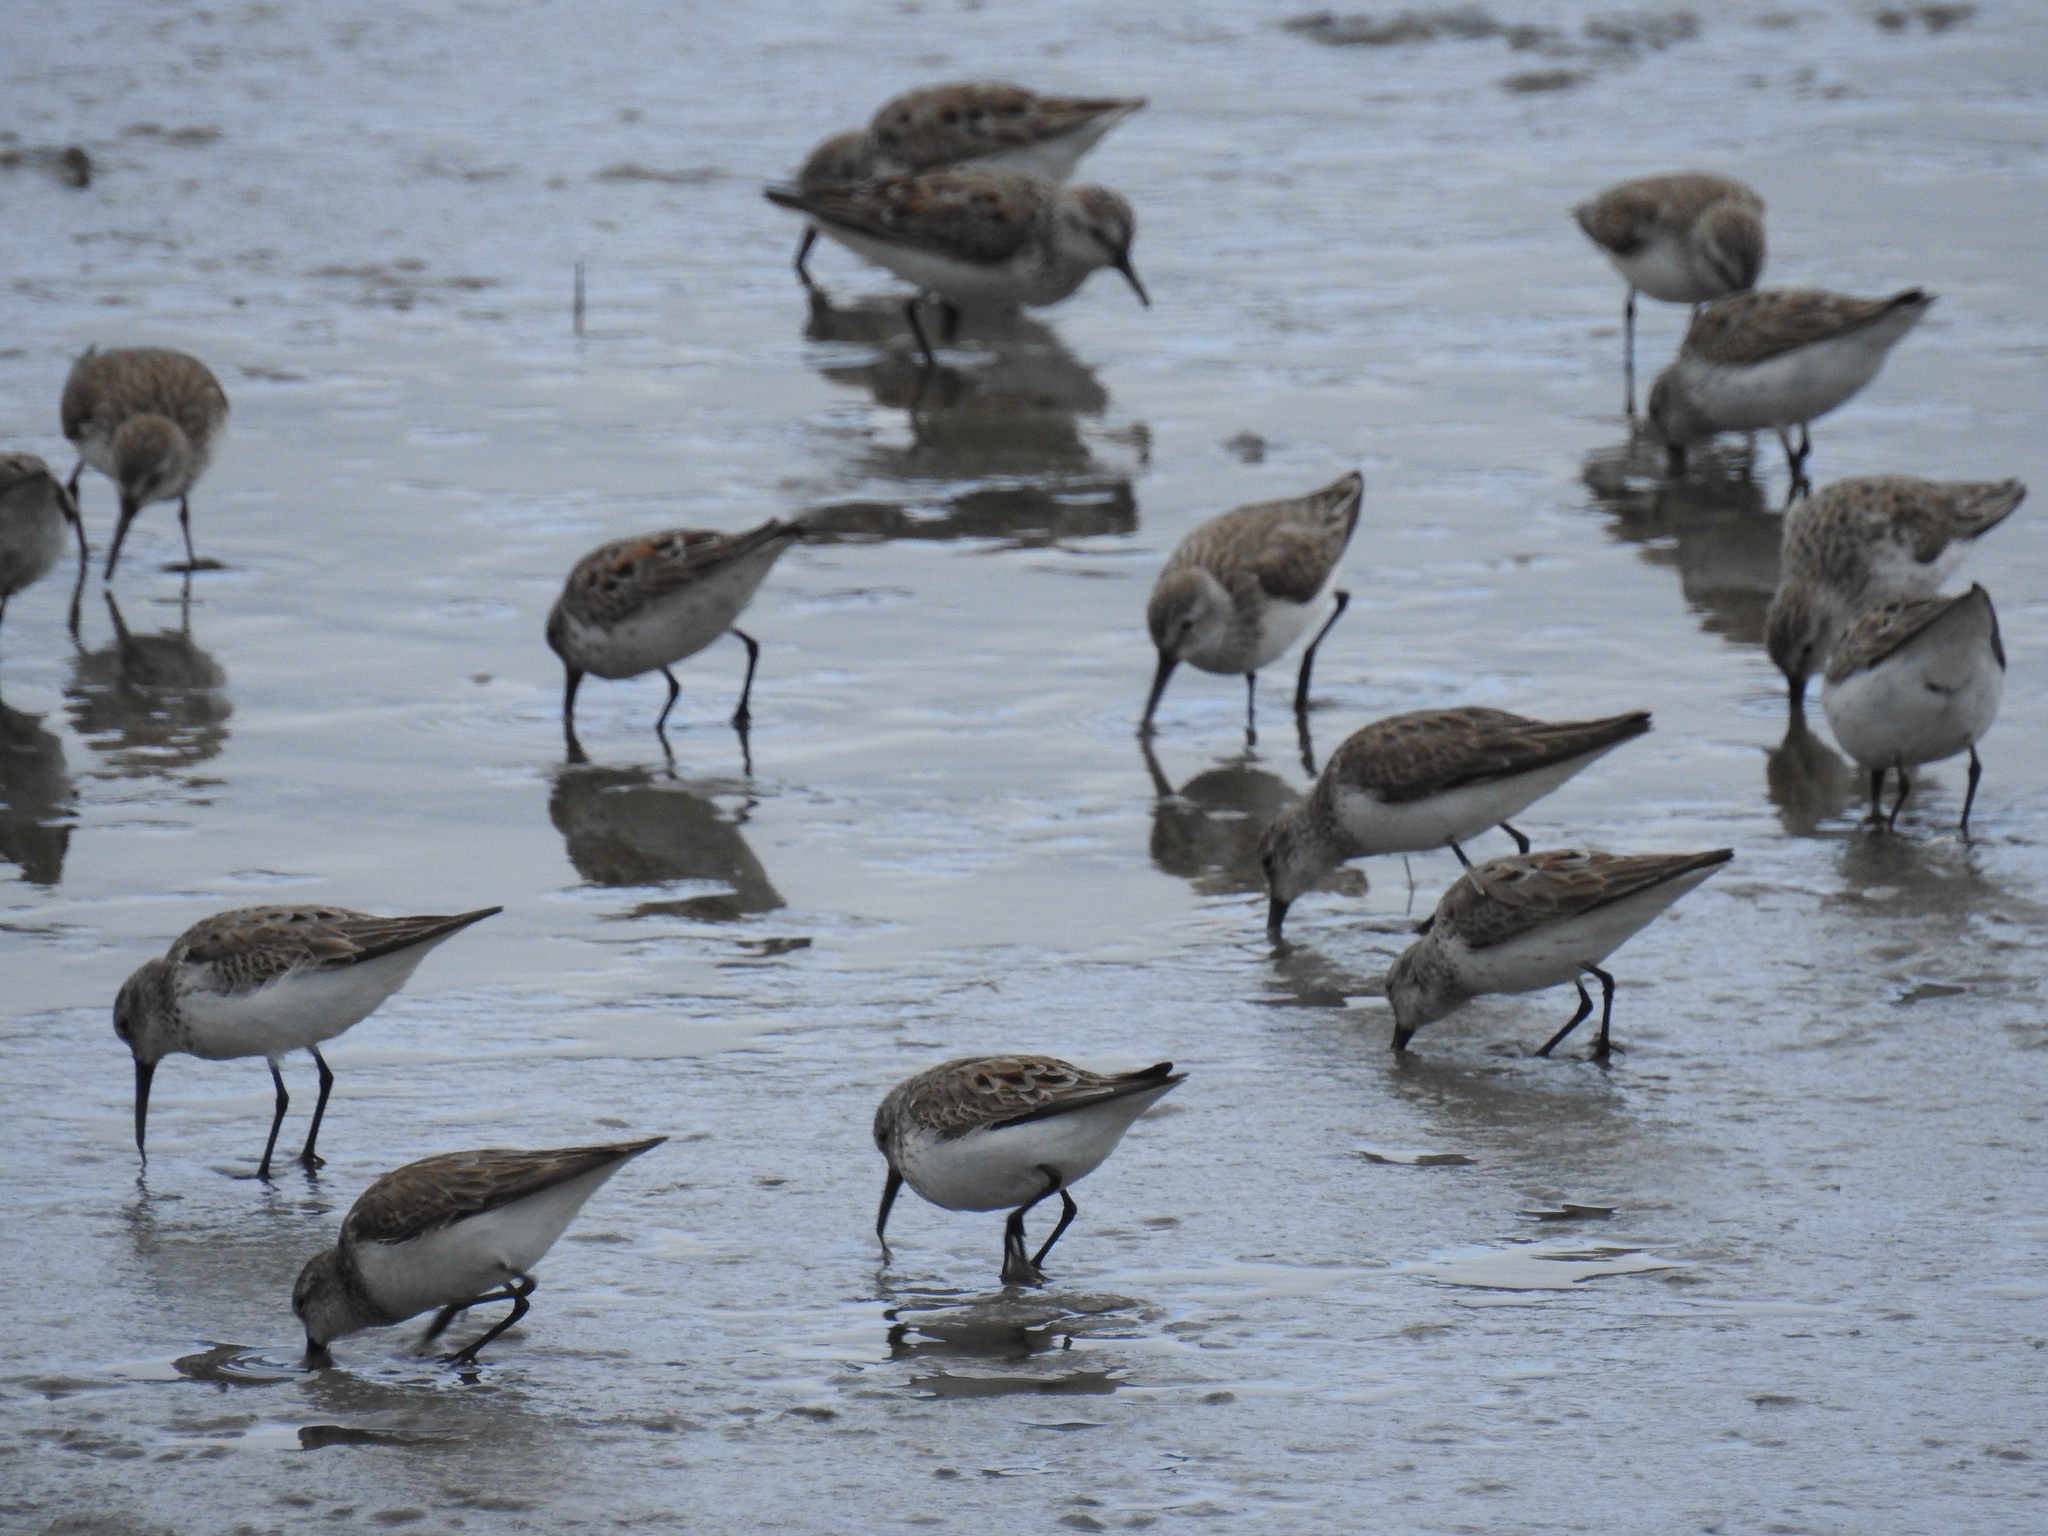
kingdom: Animalia
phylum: Chordata
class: Aves
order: Charadriiformes
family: Scolopacidae
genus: Calidris
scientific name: Calidris mauri
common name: Western sandpiper
